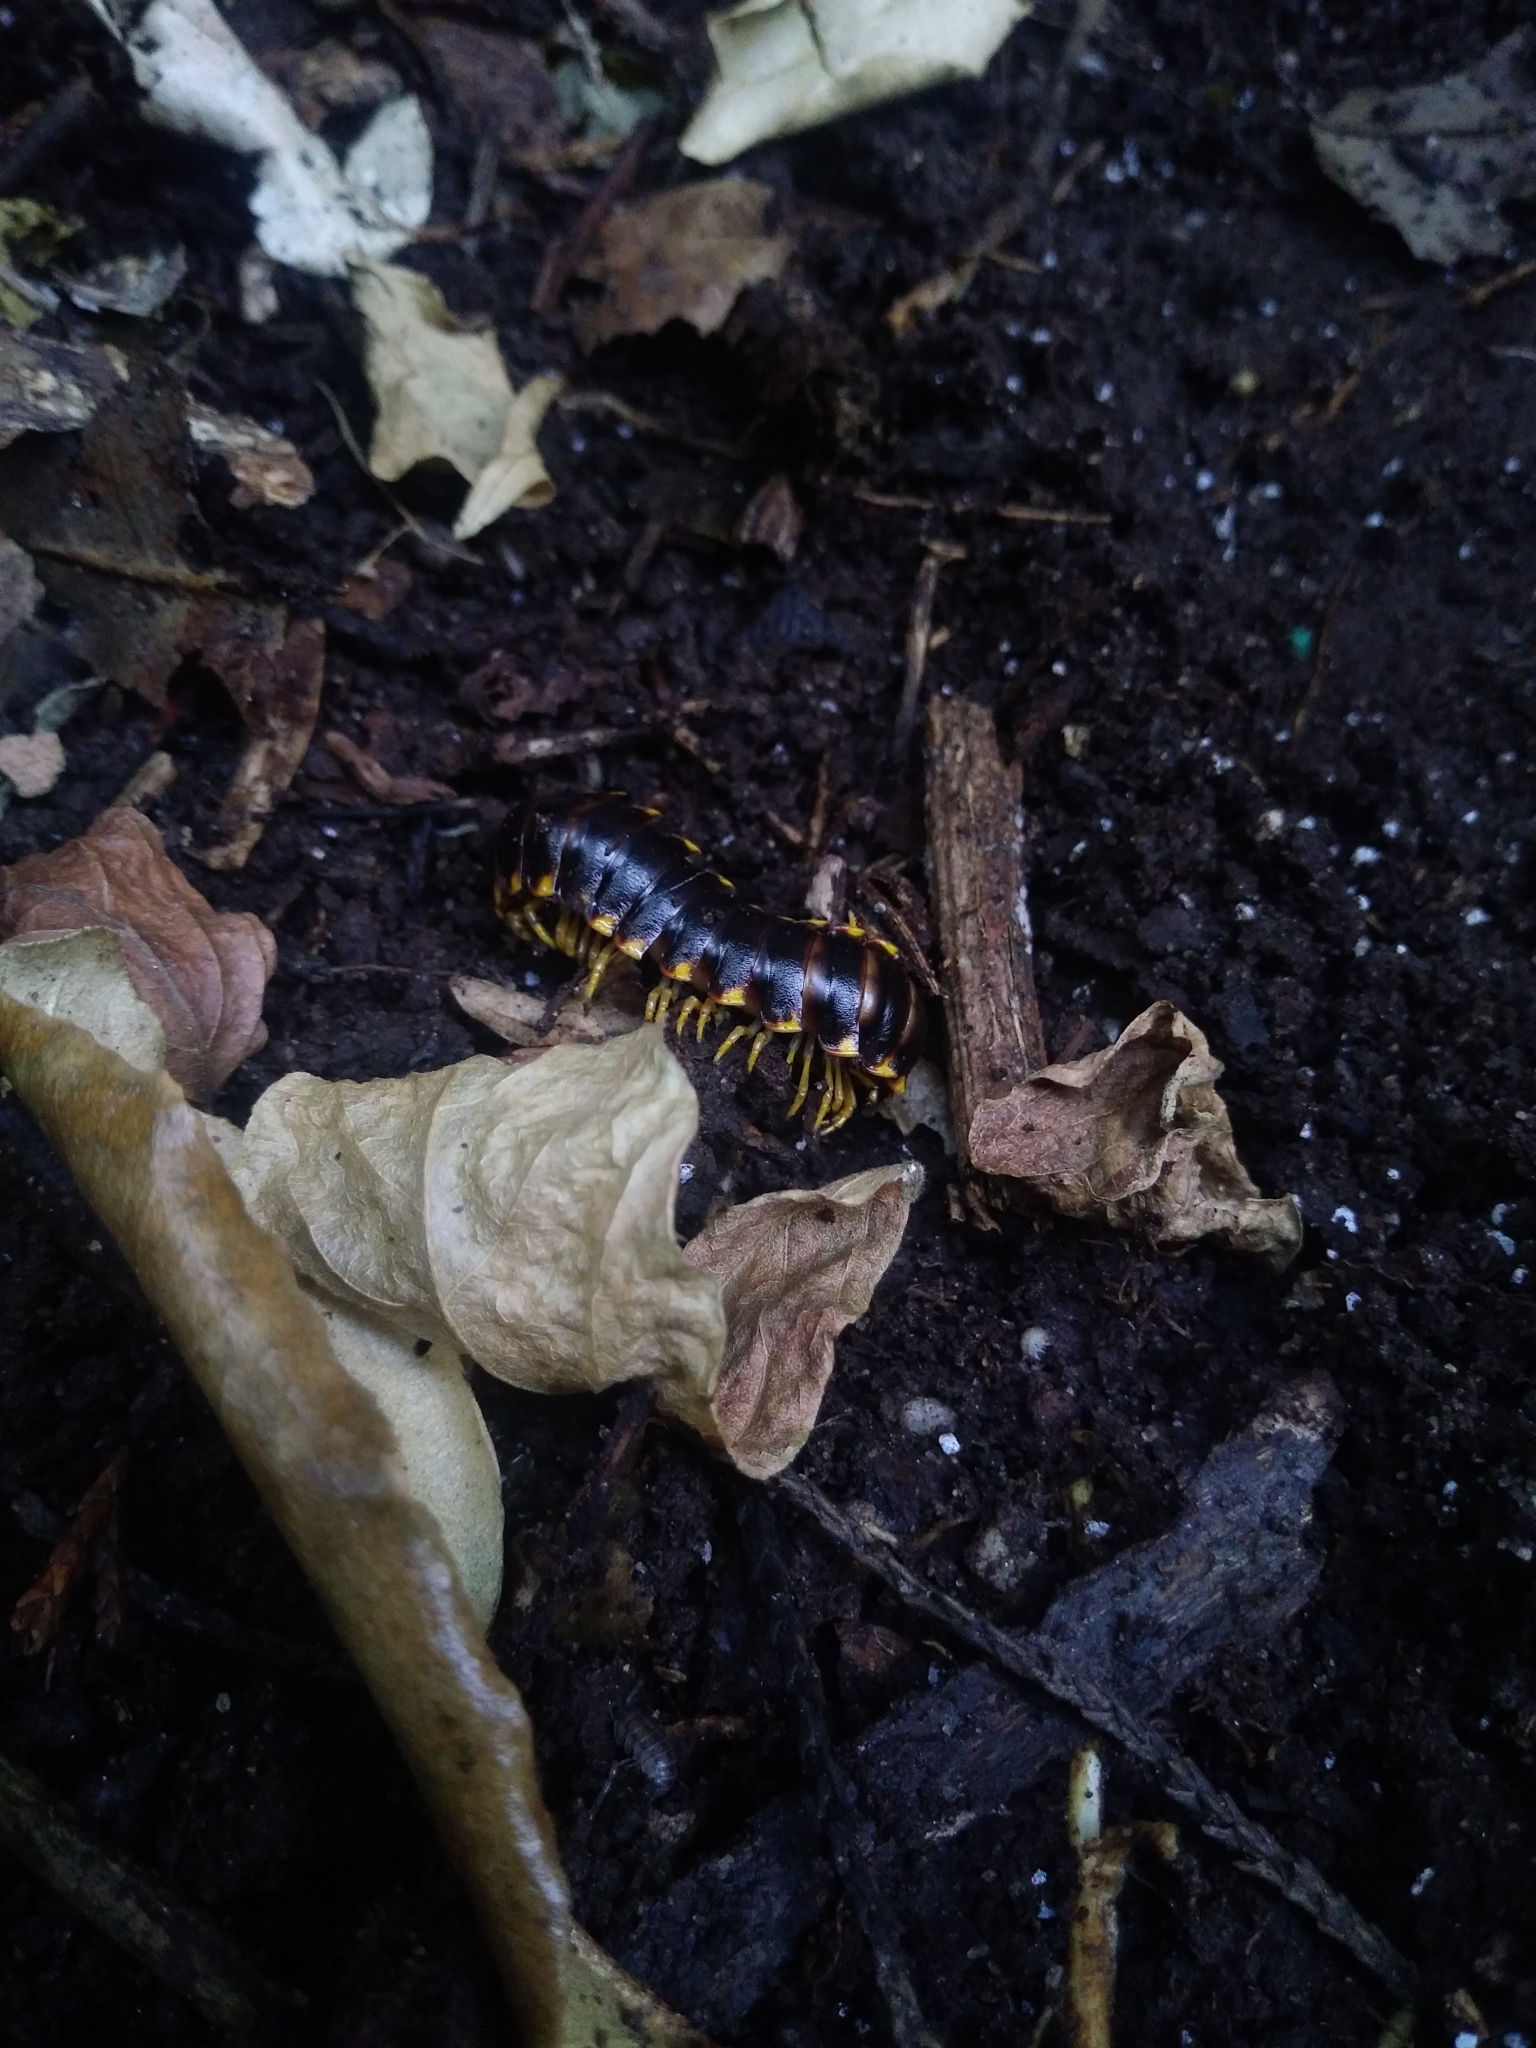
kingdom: Animalia
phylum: Arthropoda
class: Diplopoda
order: Polydesmida
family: Xystodesmidae
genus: Apheloria
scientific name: Apheloria tigana
